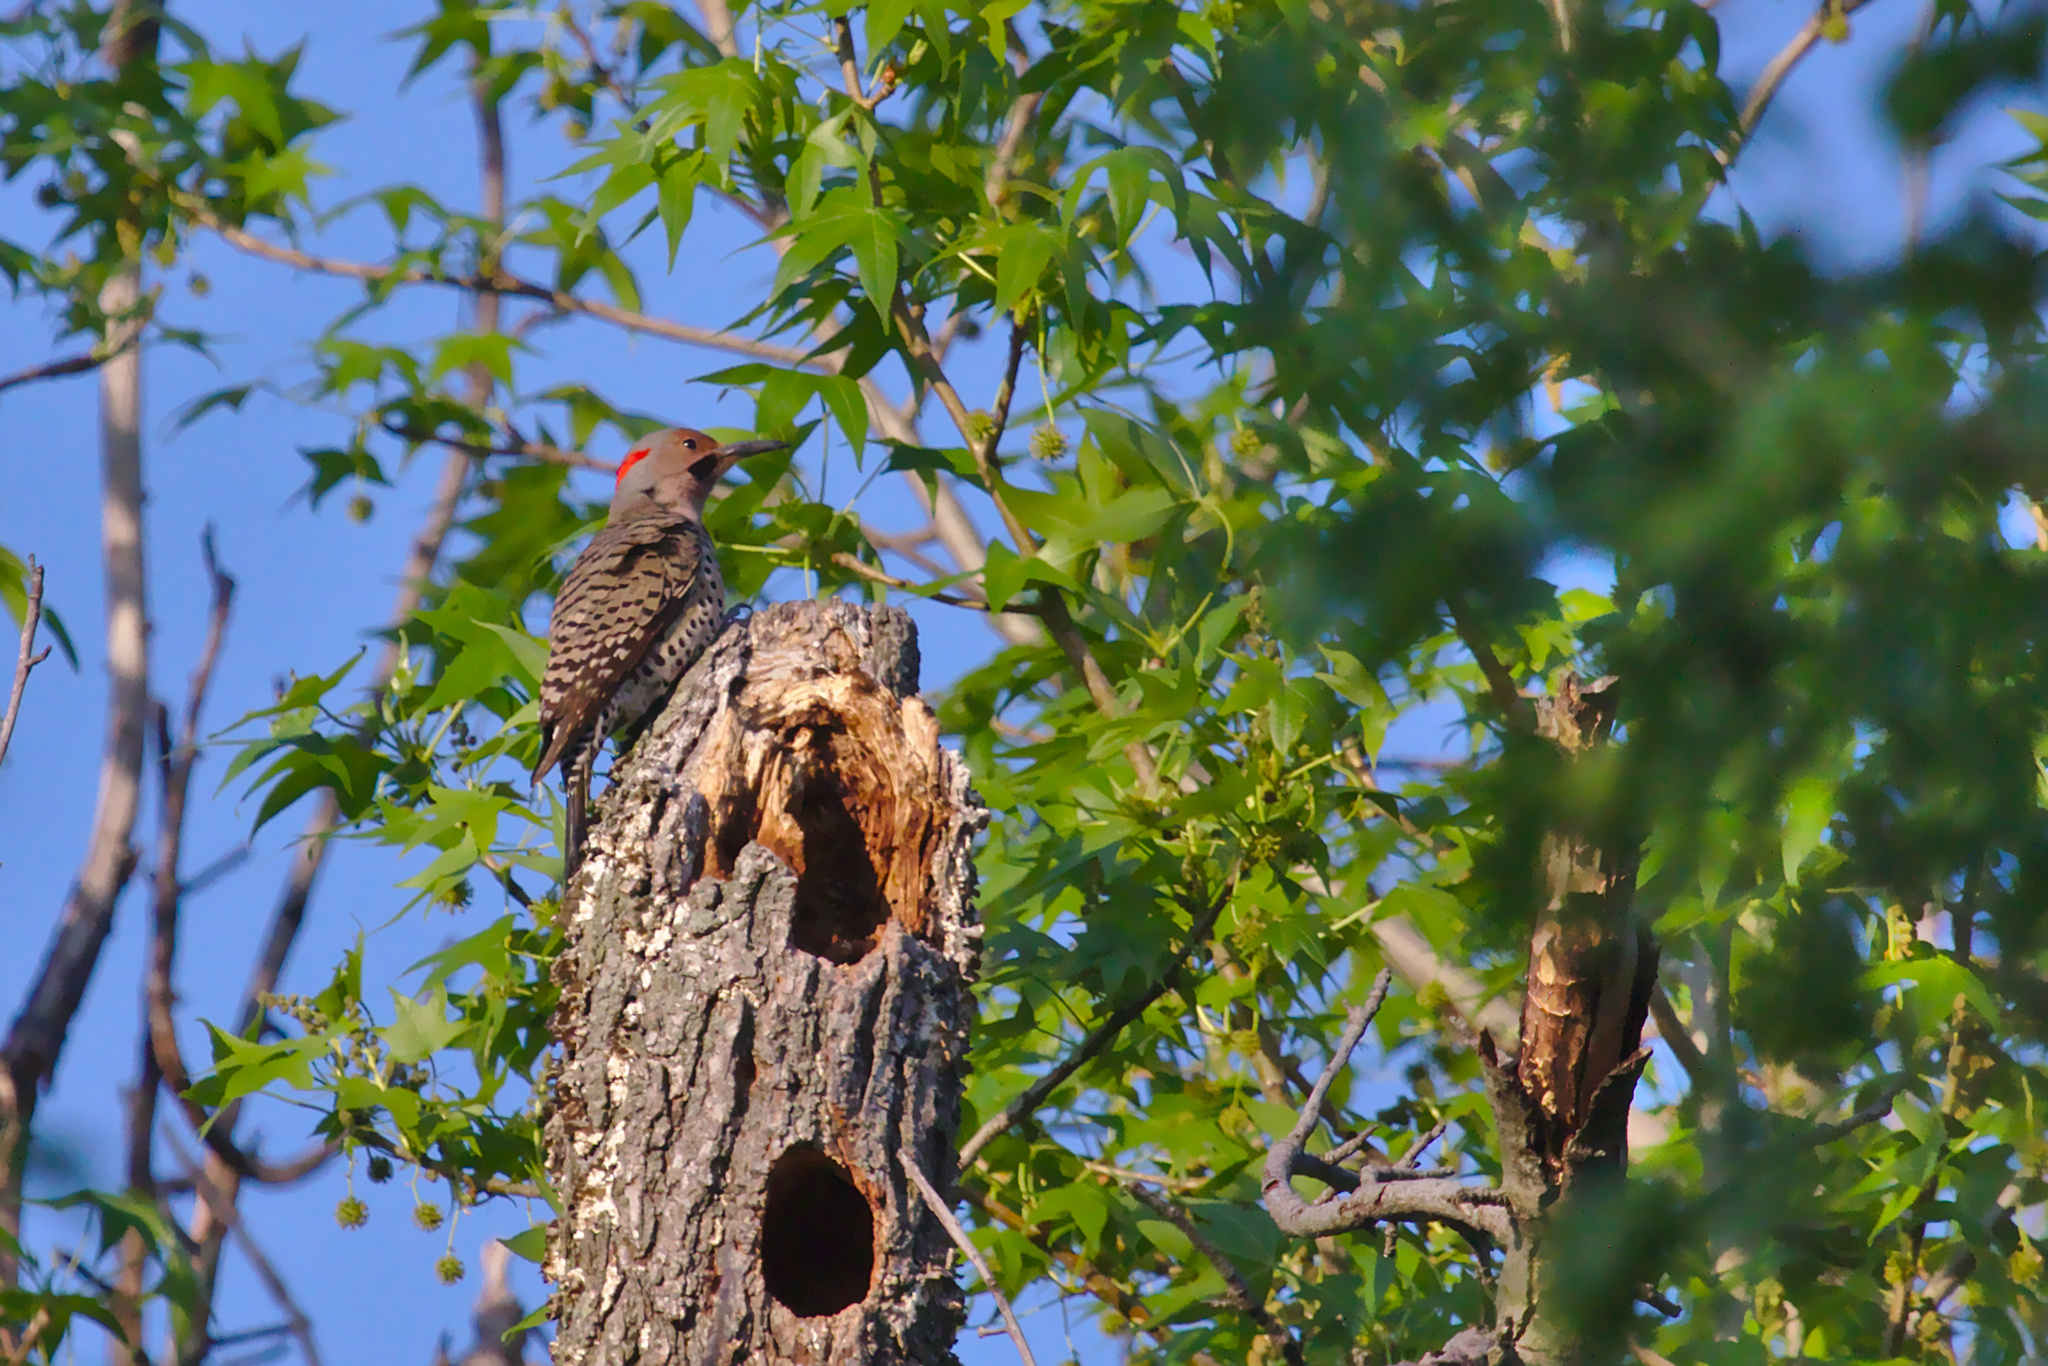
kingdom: Animalia
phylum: Chordata
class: Aves
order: Piciformes
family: Picidae
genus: Colaptes
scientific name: Colaptes auratus
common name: Northern flicker
